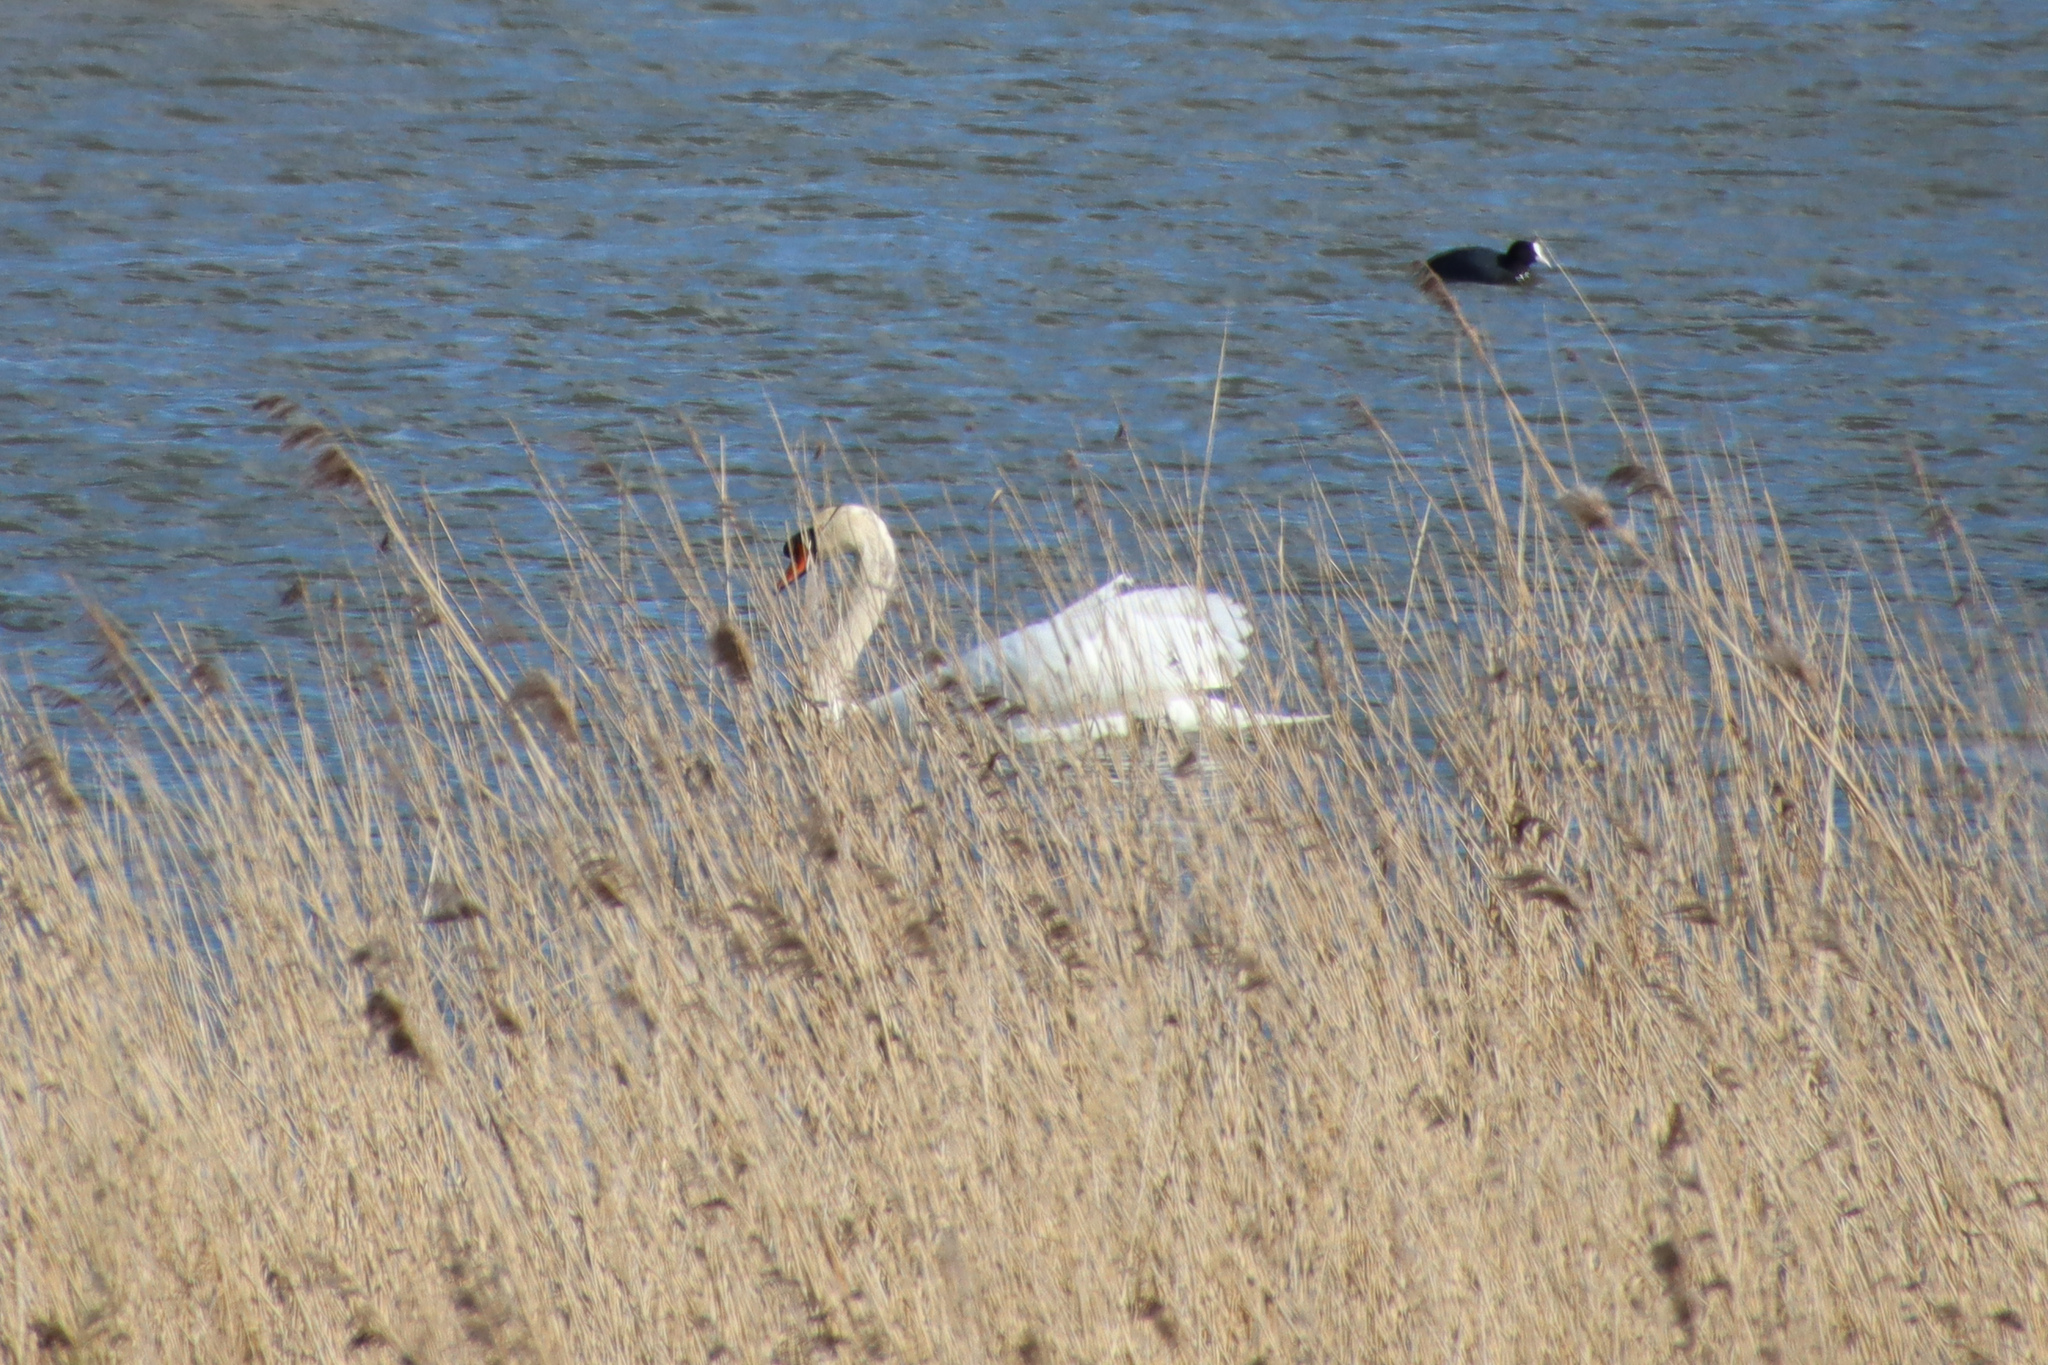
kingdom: Animalia
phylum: Chordata
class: Aves
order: Anseriformes
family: Anatidae
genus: Cygnus
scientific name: Cygnus olor
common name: Mute swan
